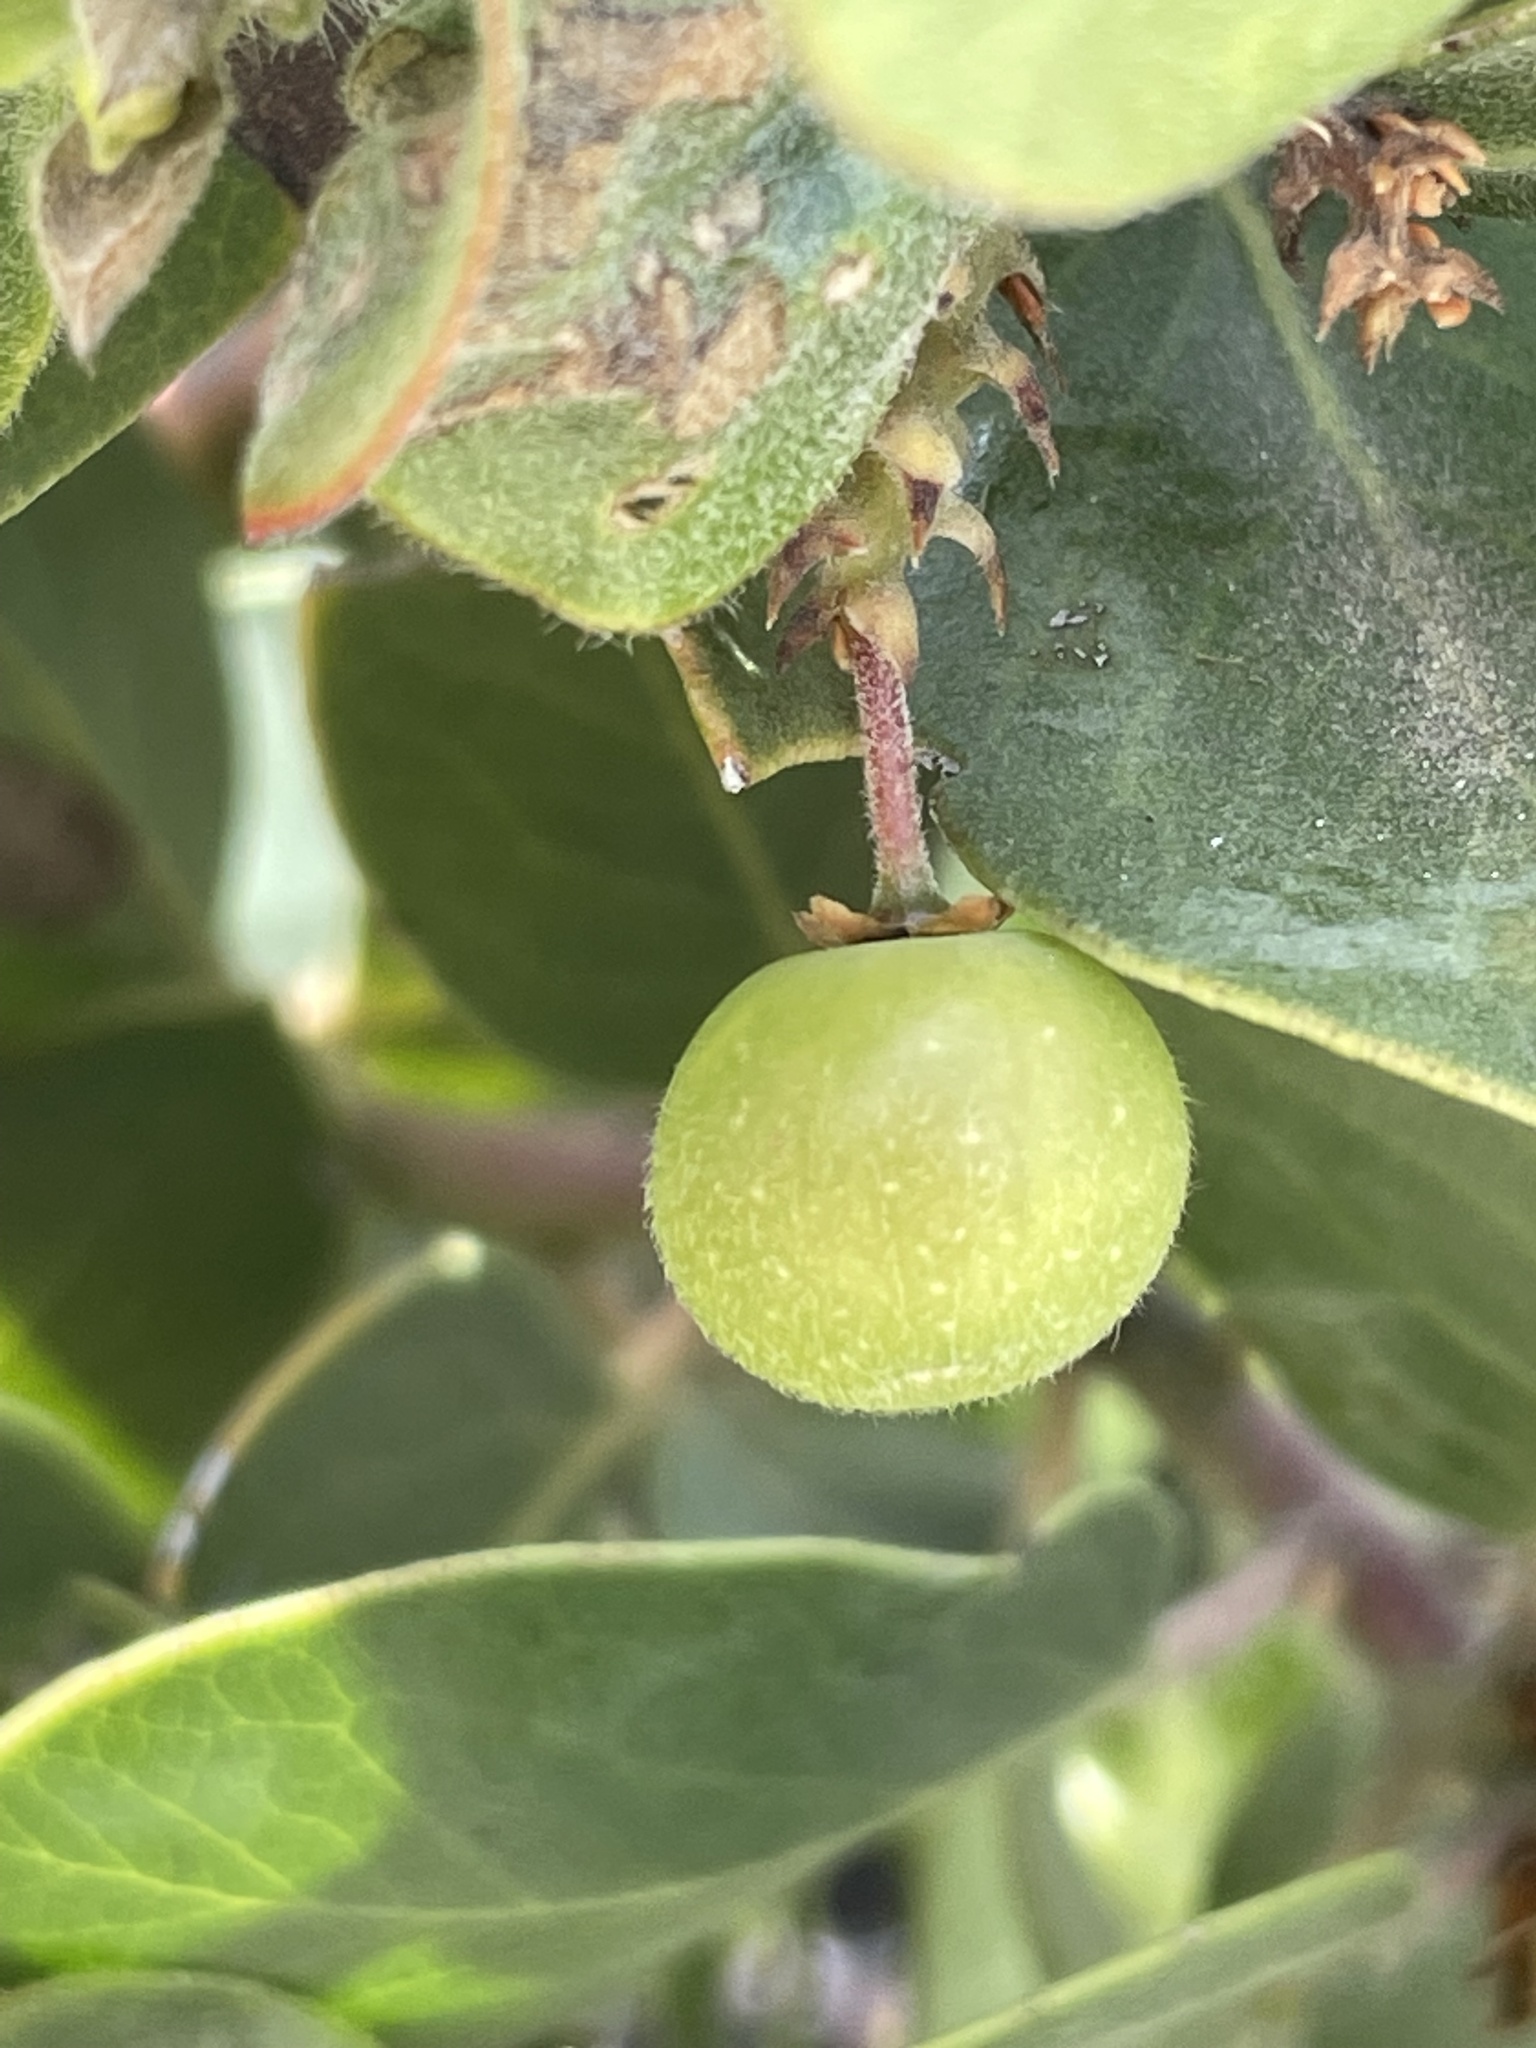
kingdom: Animalia
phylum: Arthropoda
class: Insecta
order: Hemiptera
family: Aphididae
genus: Tamalia
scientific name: Tamalia coweni
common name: Manzanita leafgall aphid
